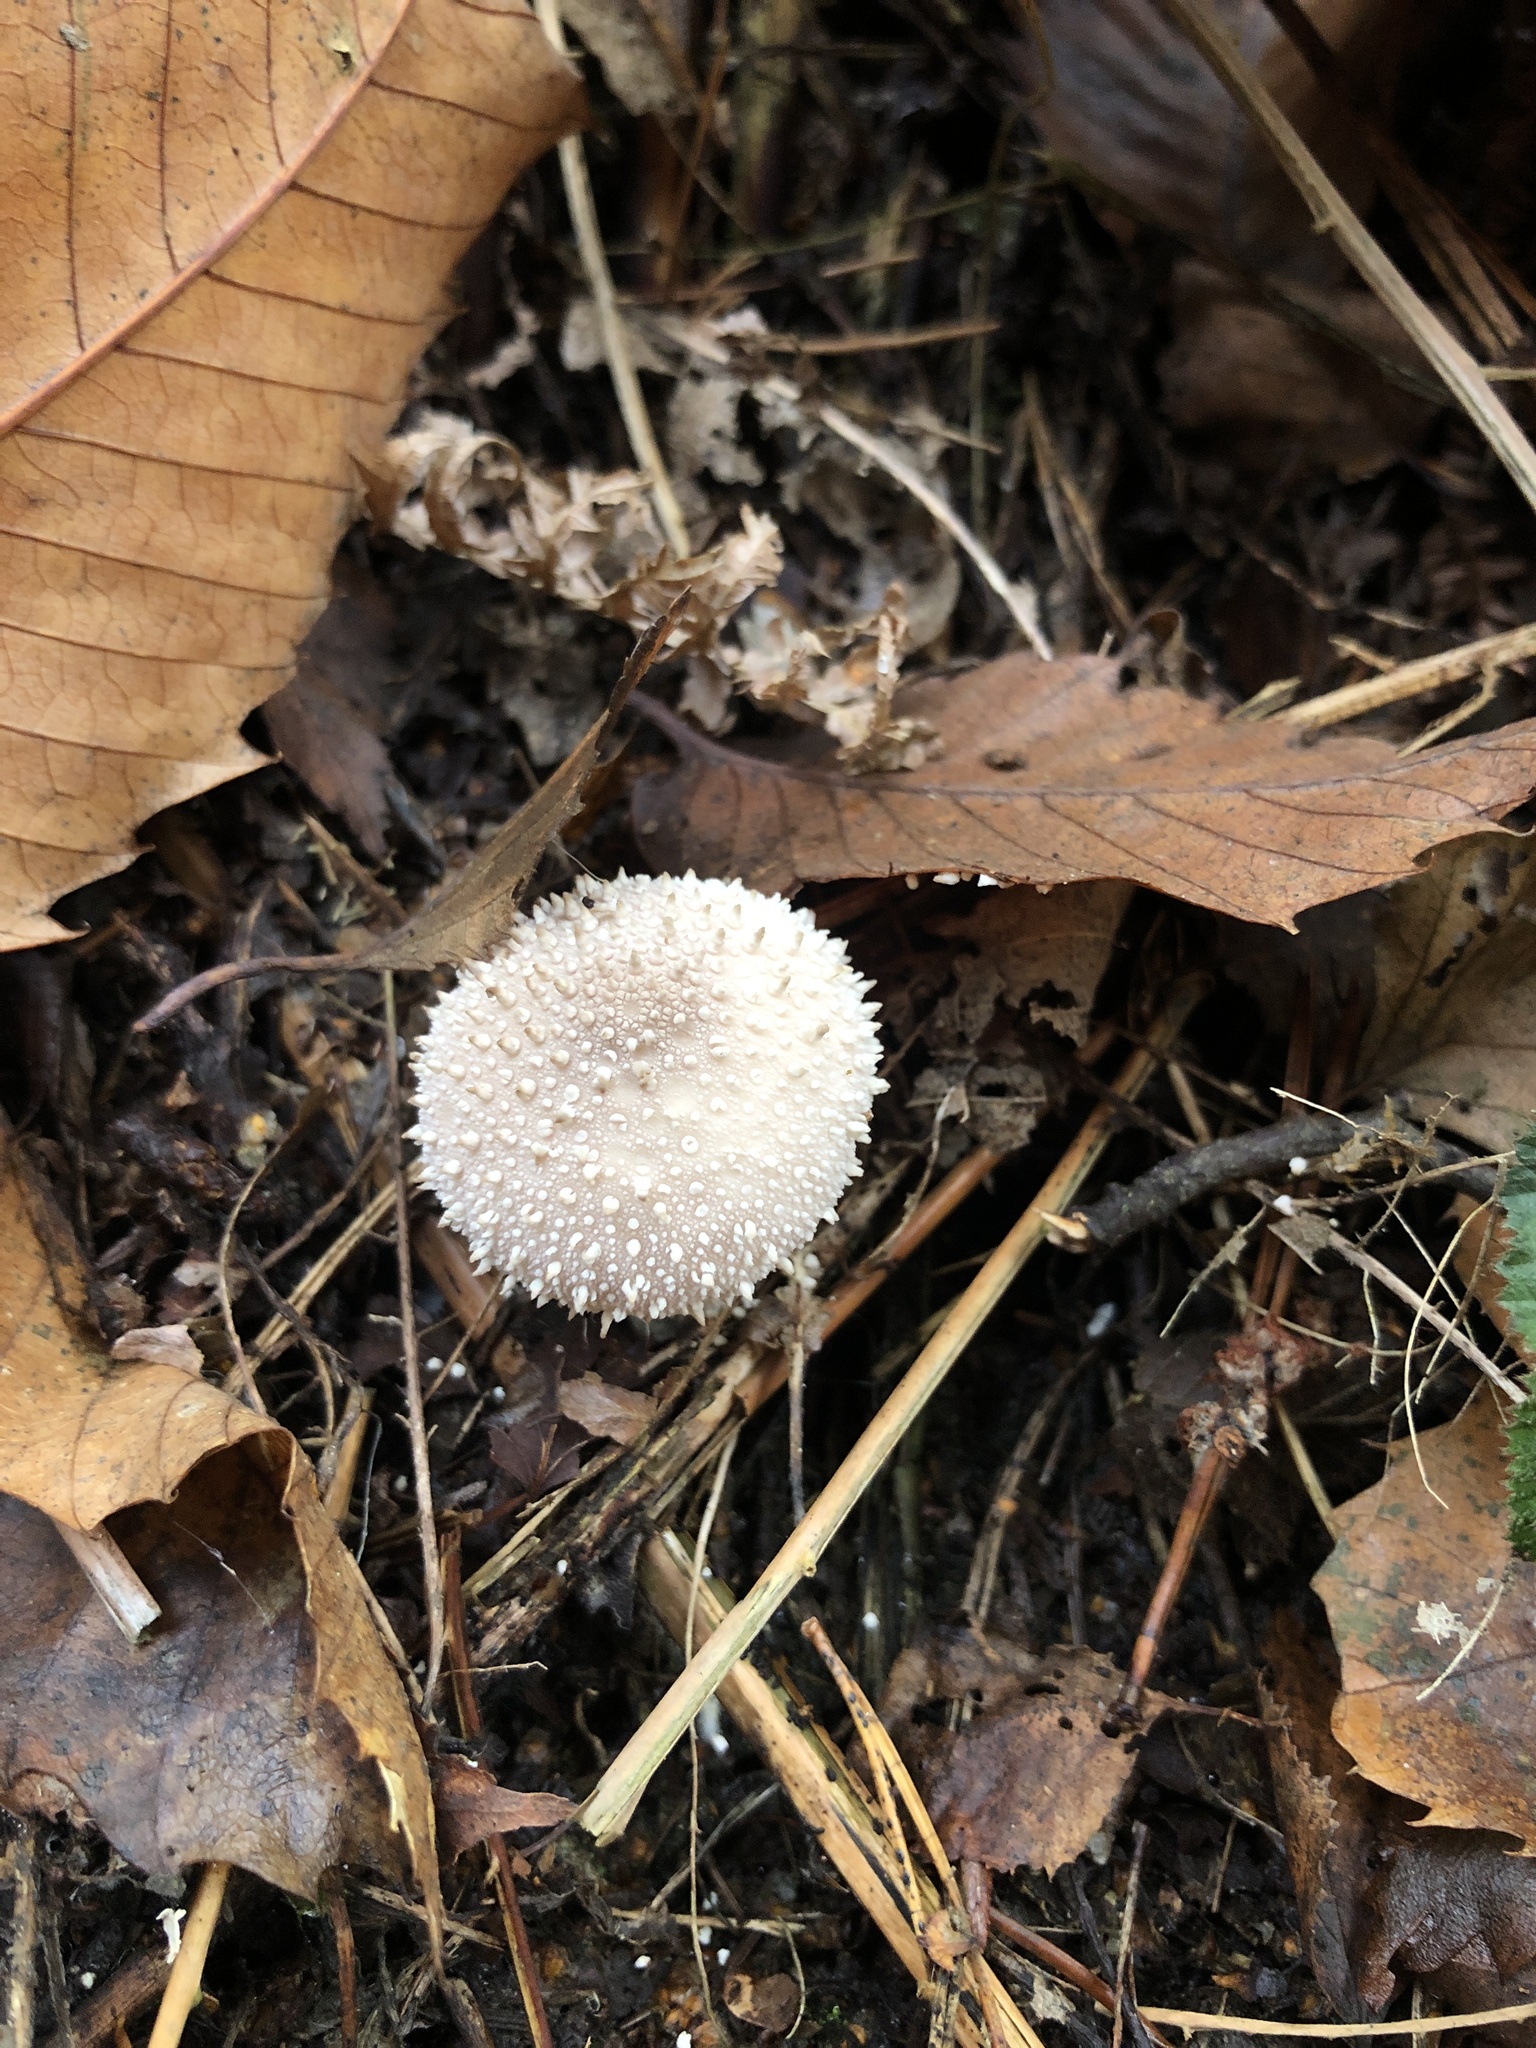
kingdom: Fungi
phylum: Basidiomycota
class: Agaricomycetes
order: Agaricales
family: Lycoperdaceae
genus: Lycoperdon
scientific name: Lycoperdon perlatum
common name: Common puffball
